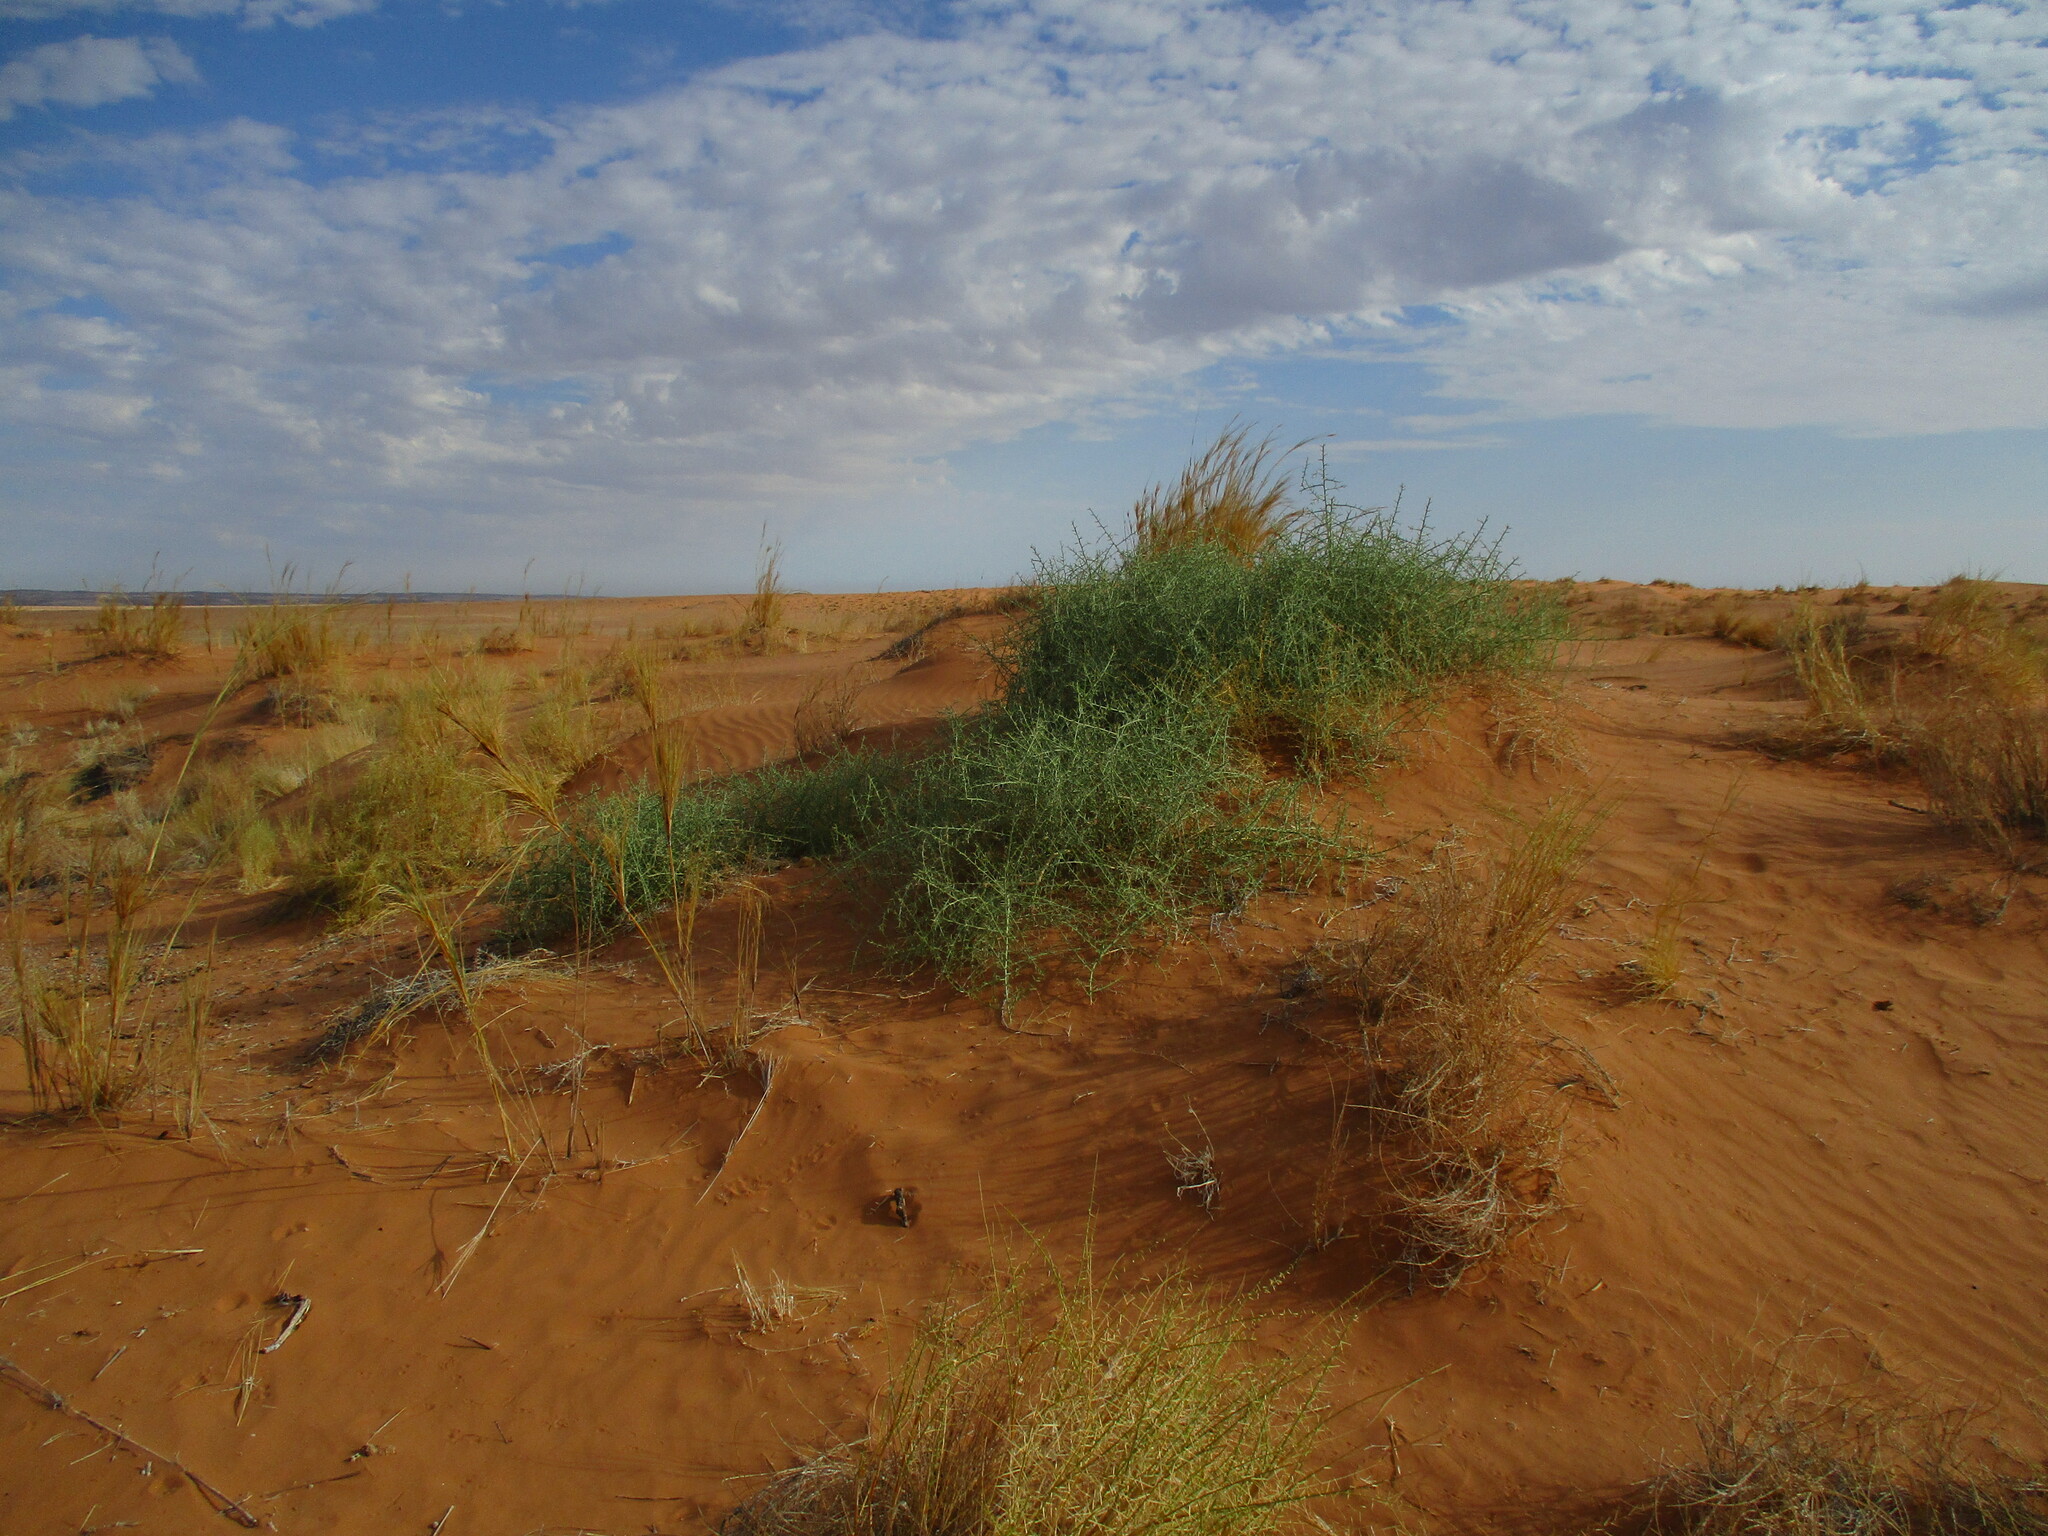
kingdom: Plantae
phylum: Tracheophyta
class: Magnoliopsida
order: Cucurbitales
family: Cucurbitaceae
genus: Acanthosicyos
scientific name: Acanthosicyos horridus
